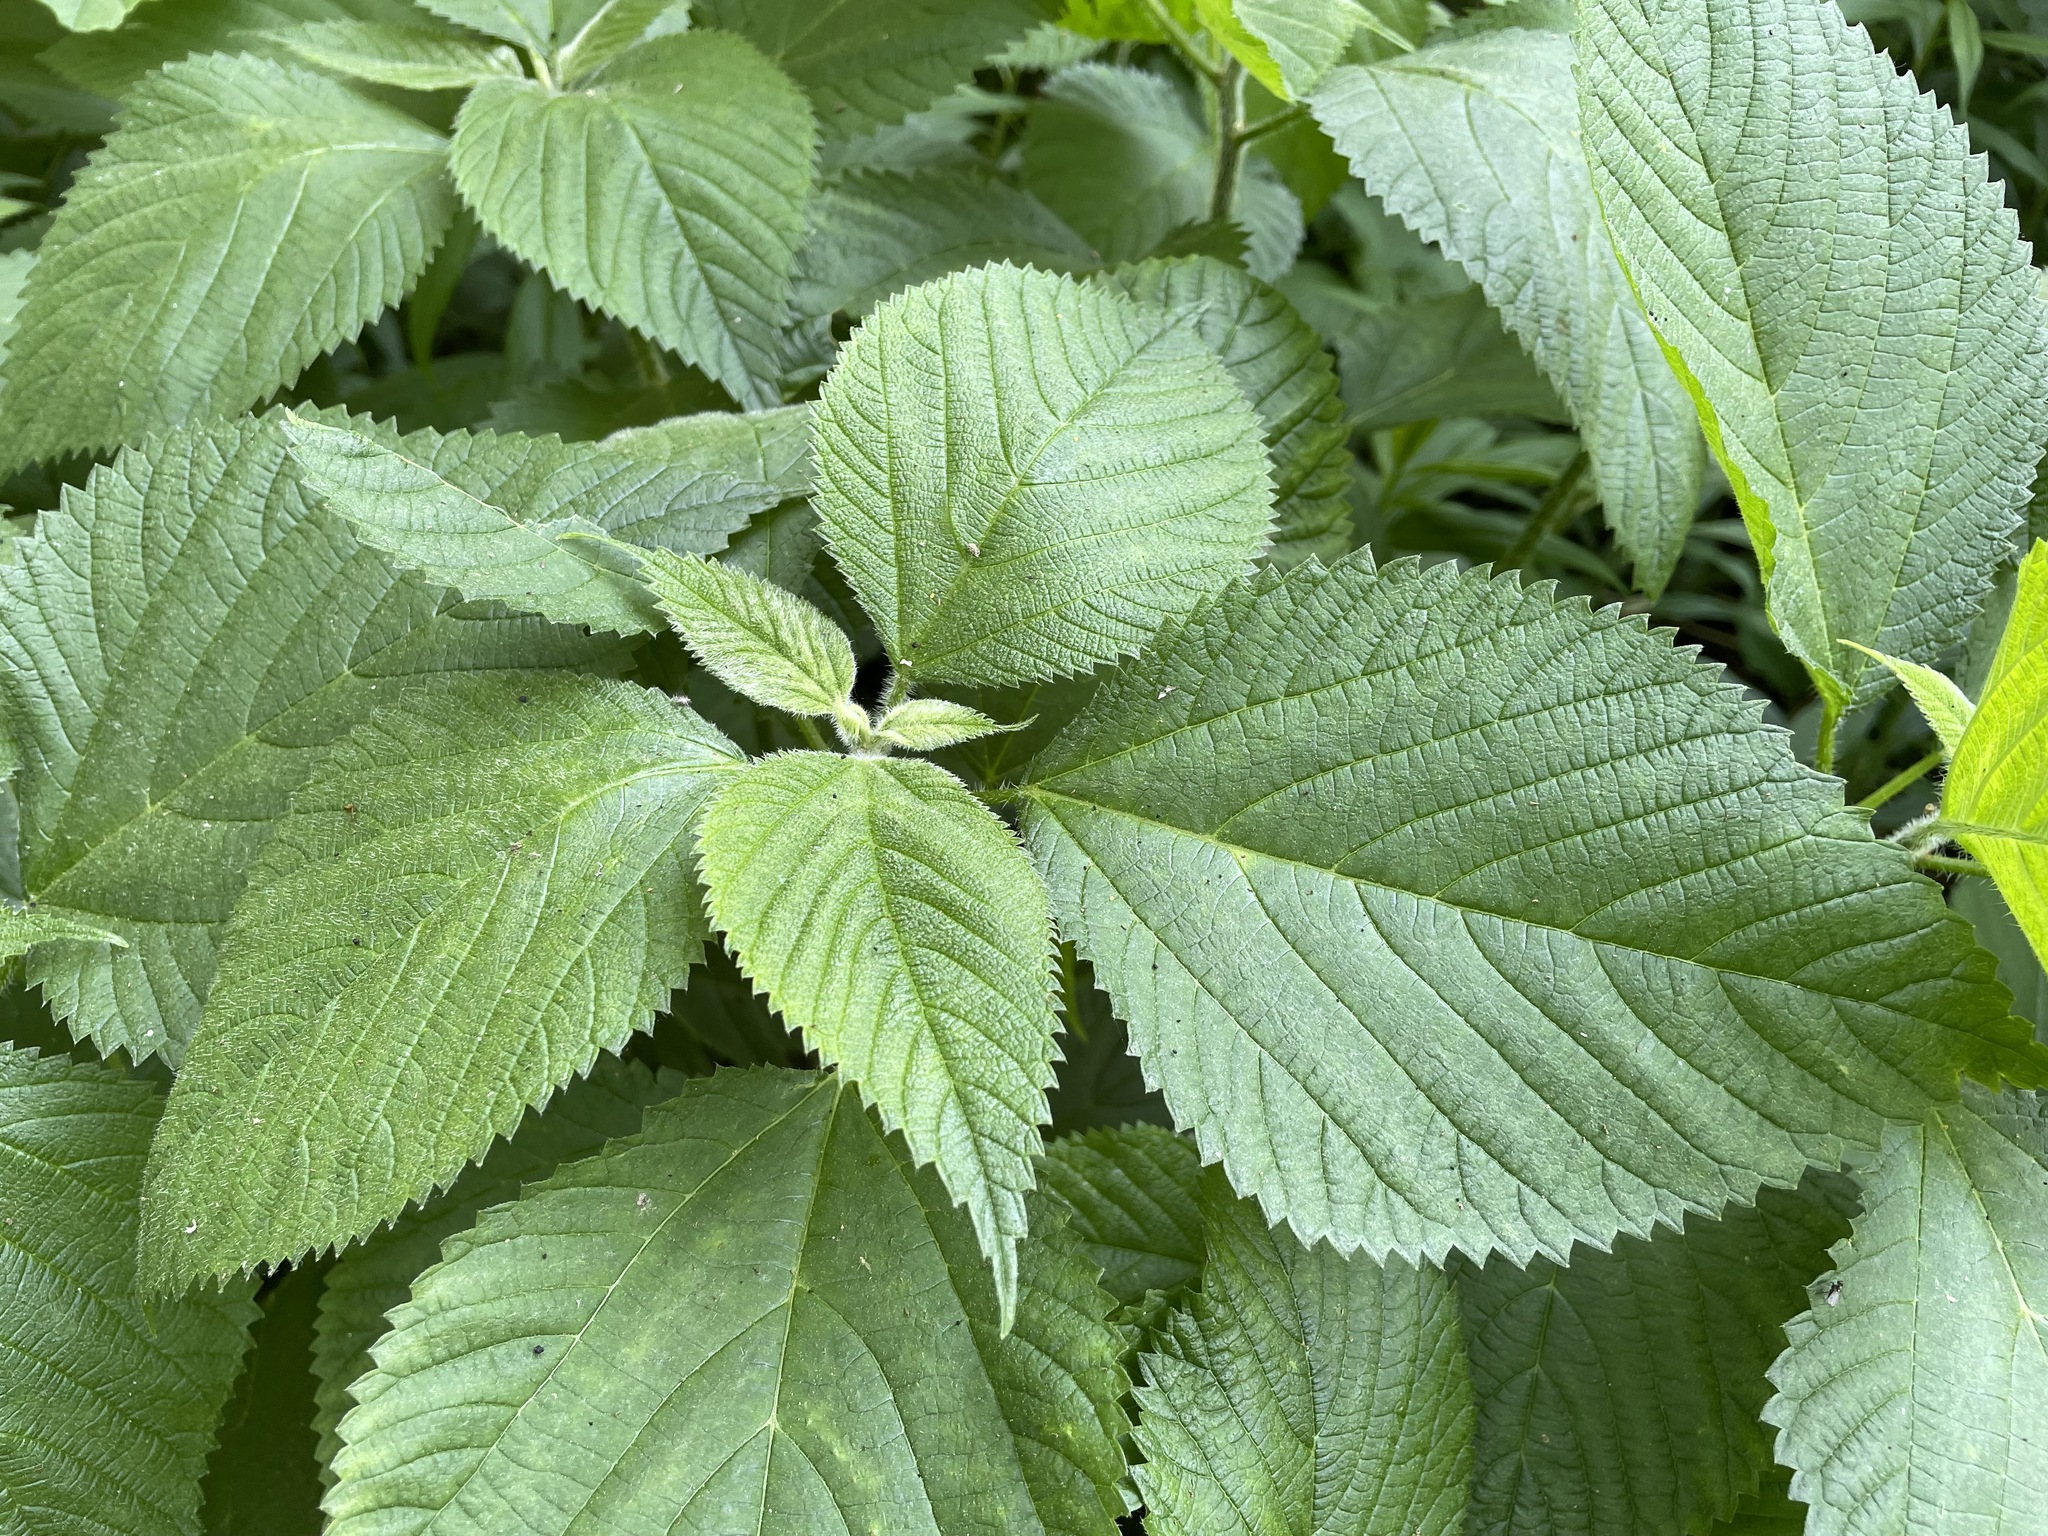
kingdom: Plantae
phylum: Tracheophyta
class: Magnoliopsida
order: Rosales
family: Urticaceae
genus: Laportea
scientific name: Laportea canadensis
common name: Canada nettle
